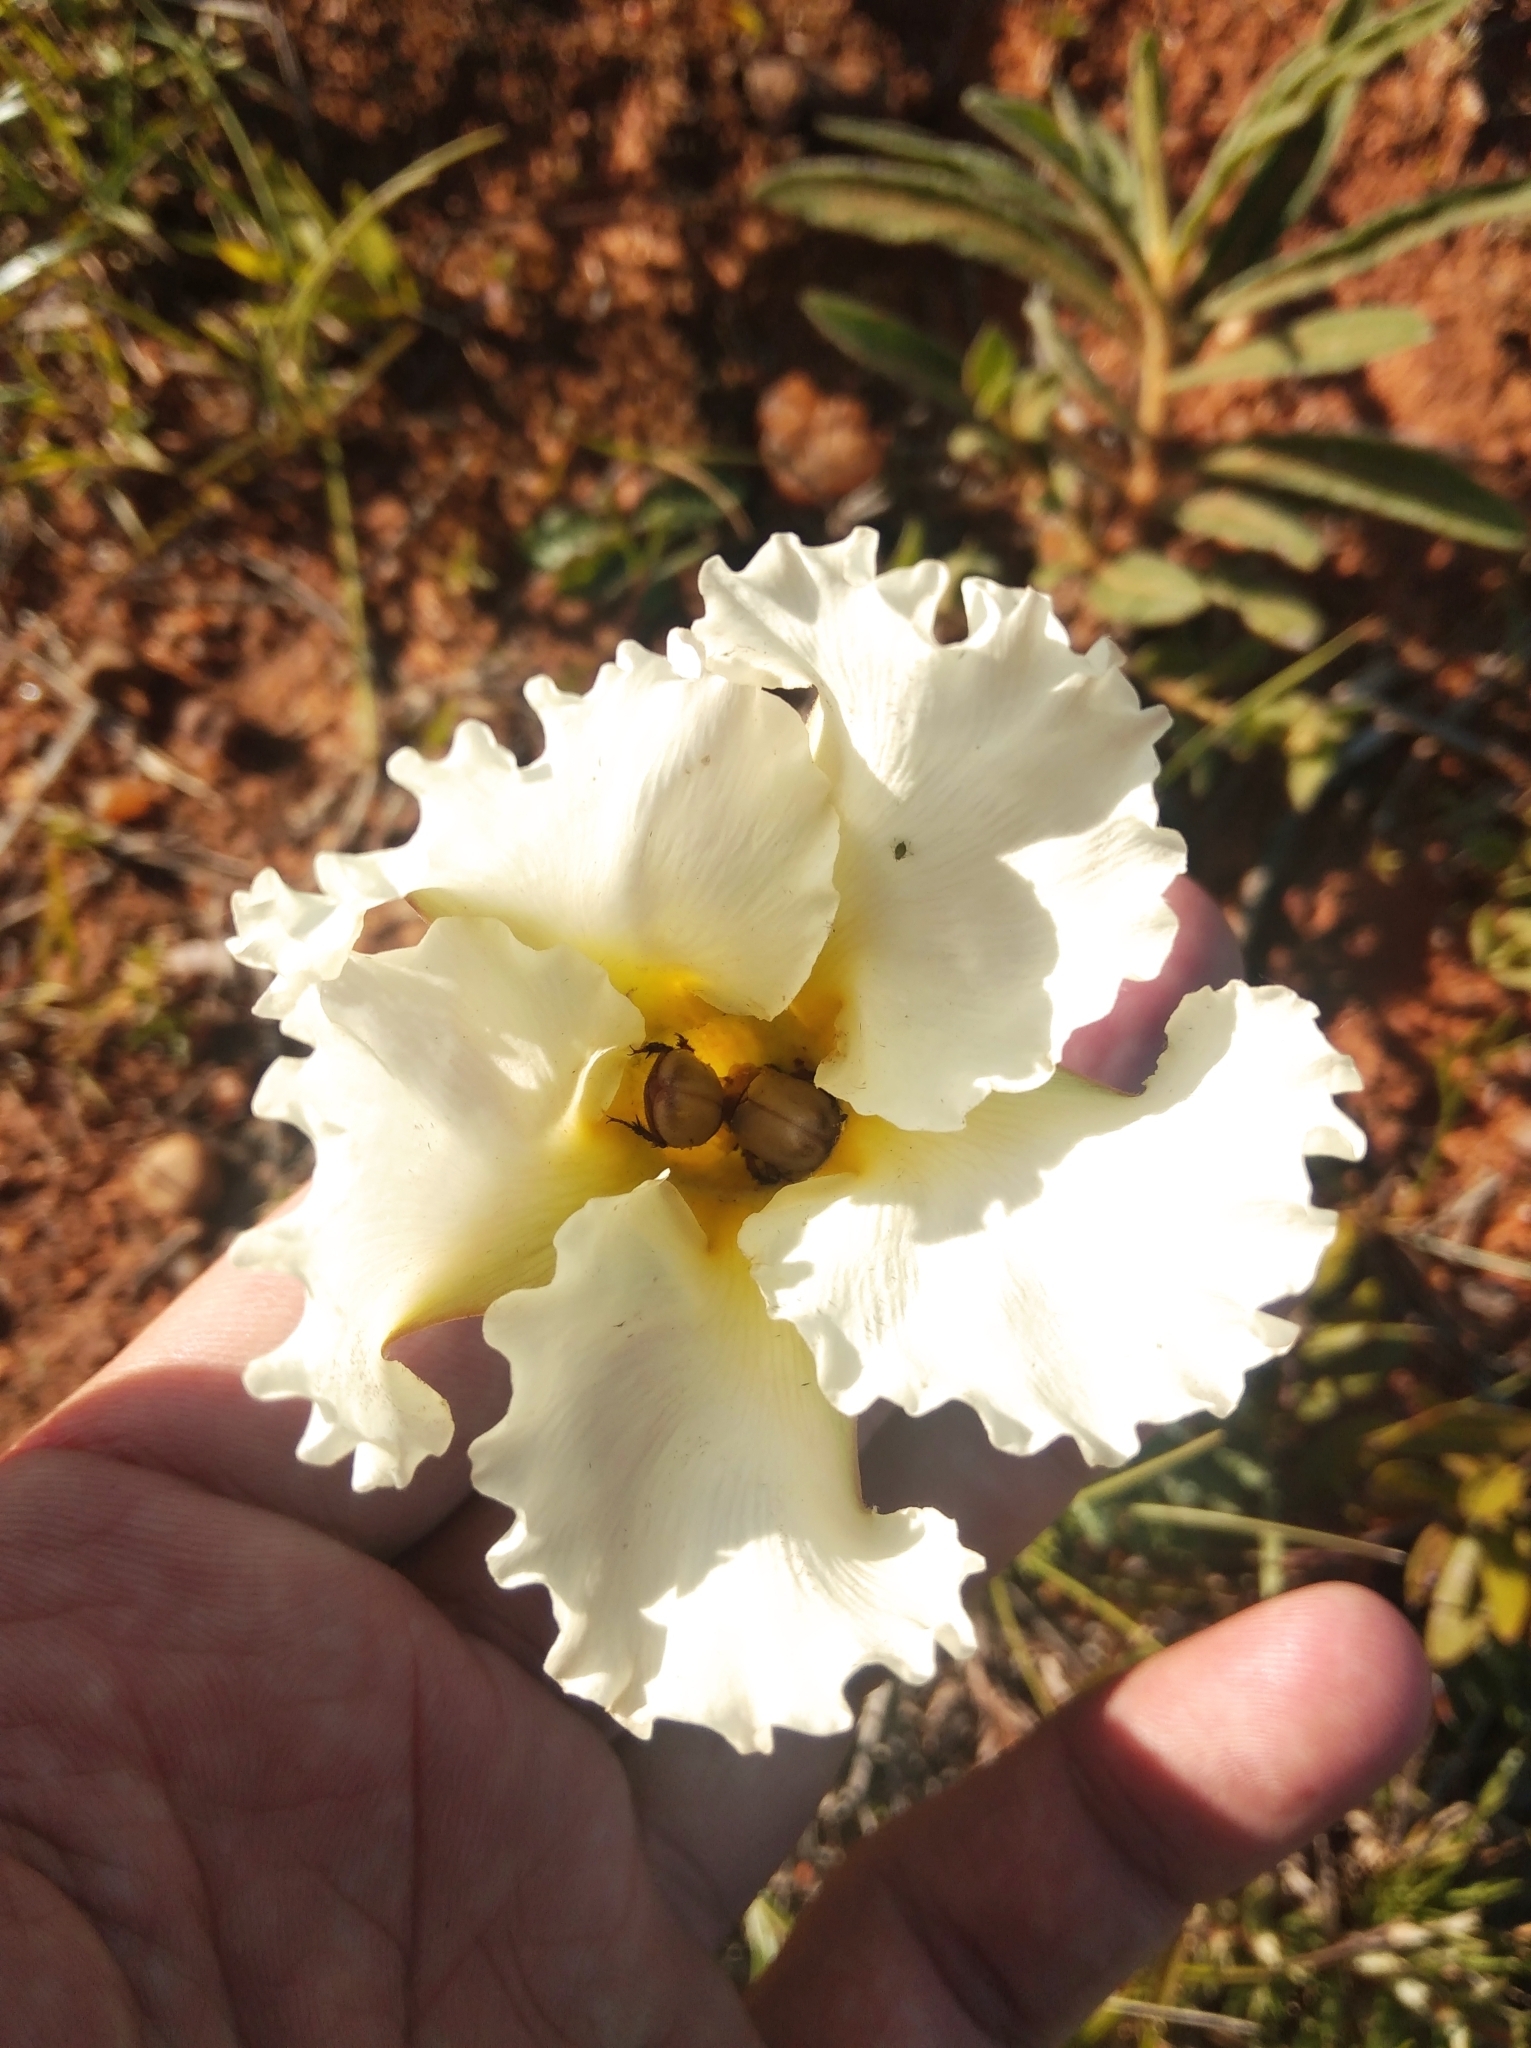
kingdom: Plantae
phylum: Tracheophyta
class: Magnoliopsida
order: Gentianales
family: Apocynaceae
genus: Mandevilla
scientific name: Mandevilla petraea
